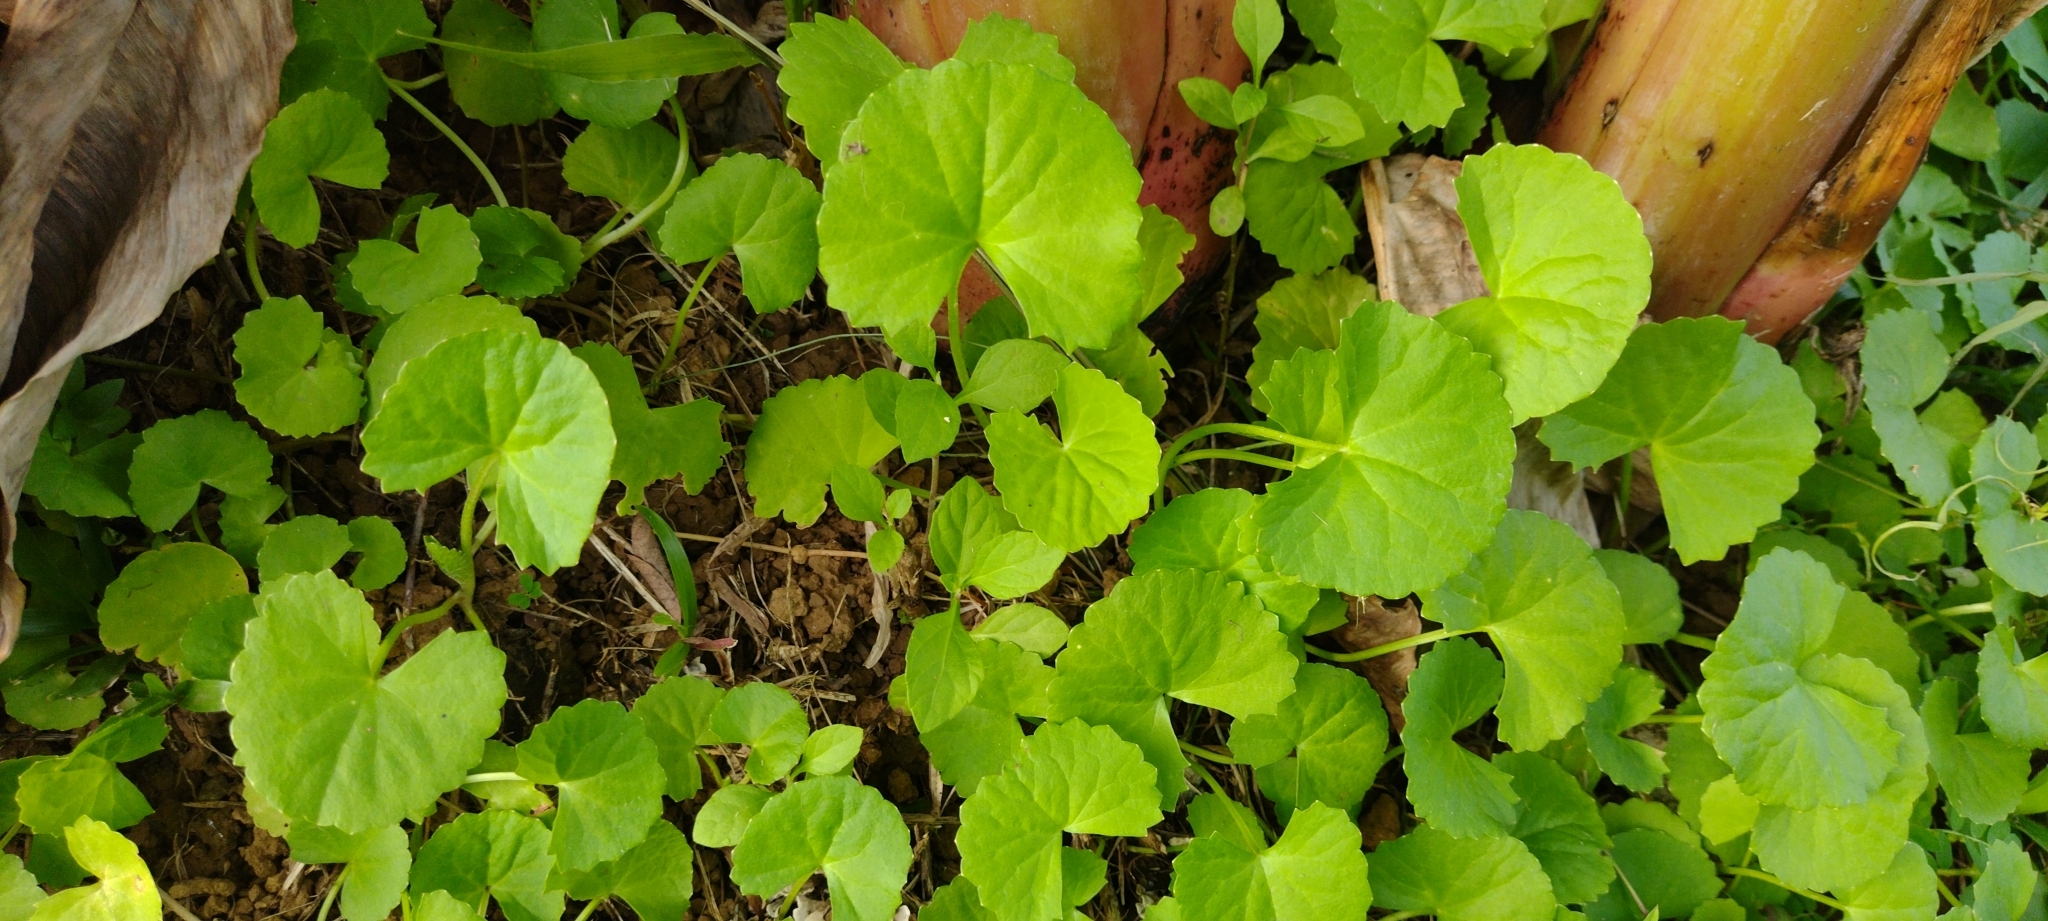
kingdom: Plantae
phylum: Tracheophyta
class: Magnoliopsida
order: Apiales
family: Apiaceae
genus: Centella
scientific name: Centella asiatica
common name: Spadeleaf
